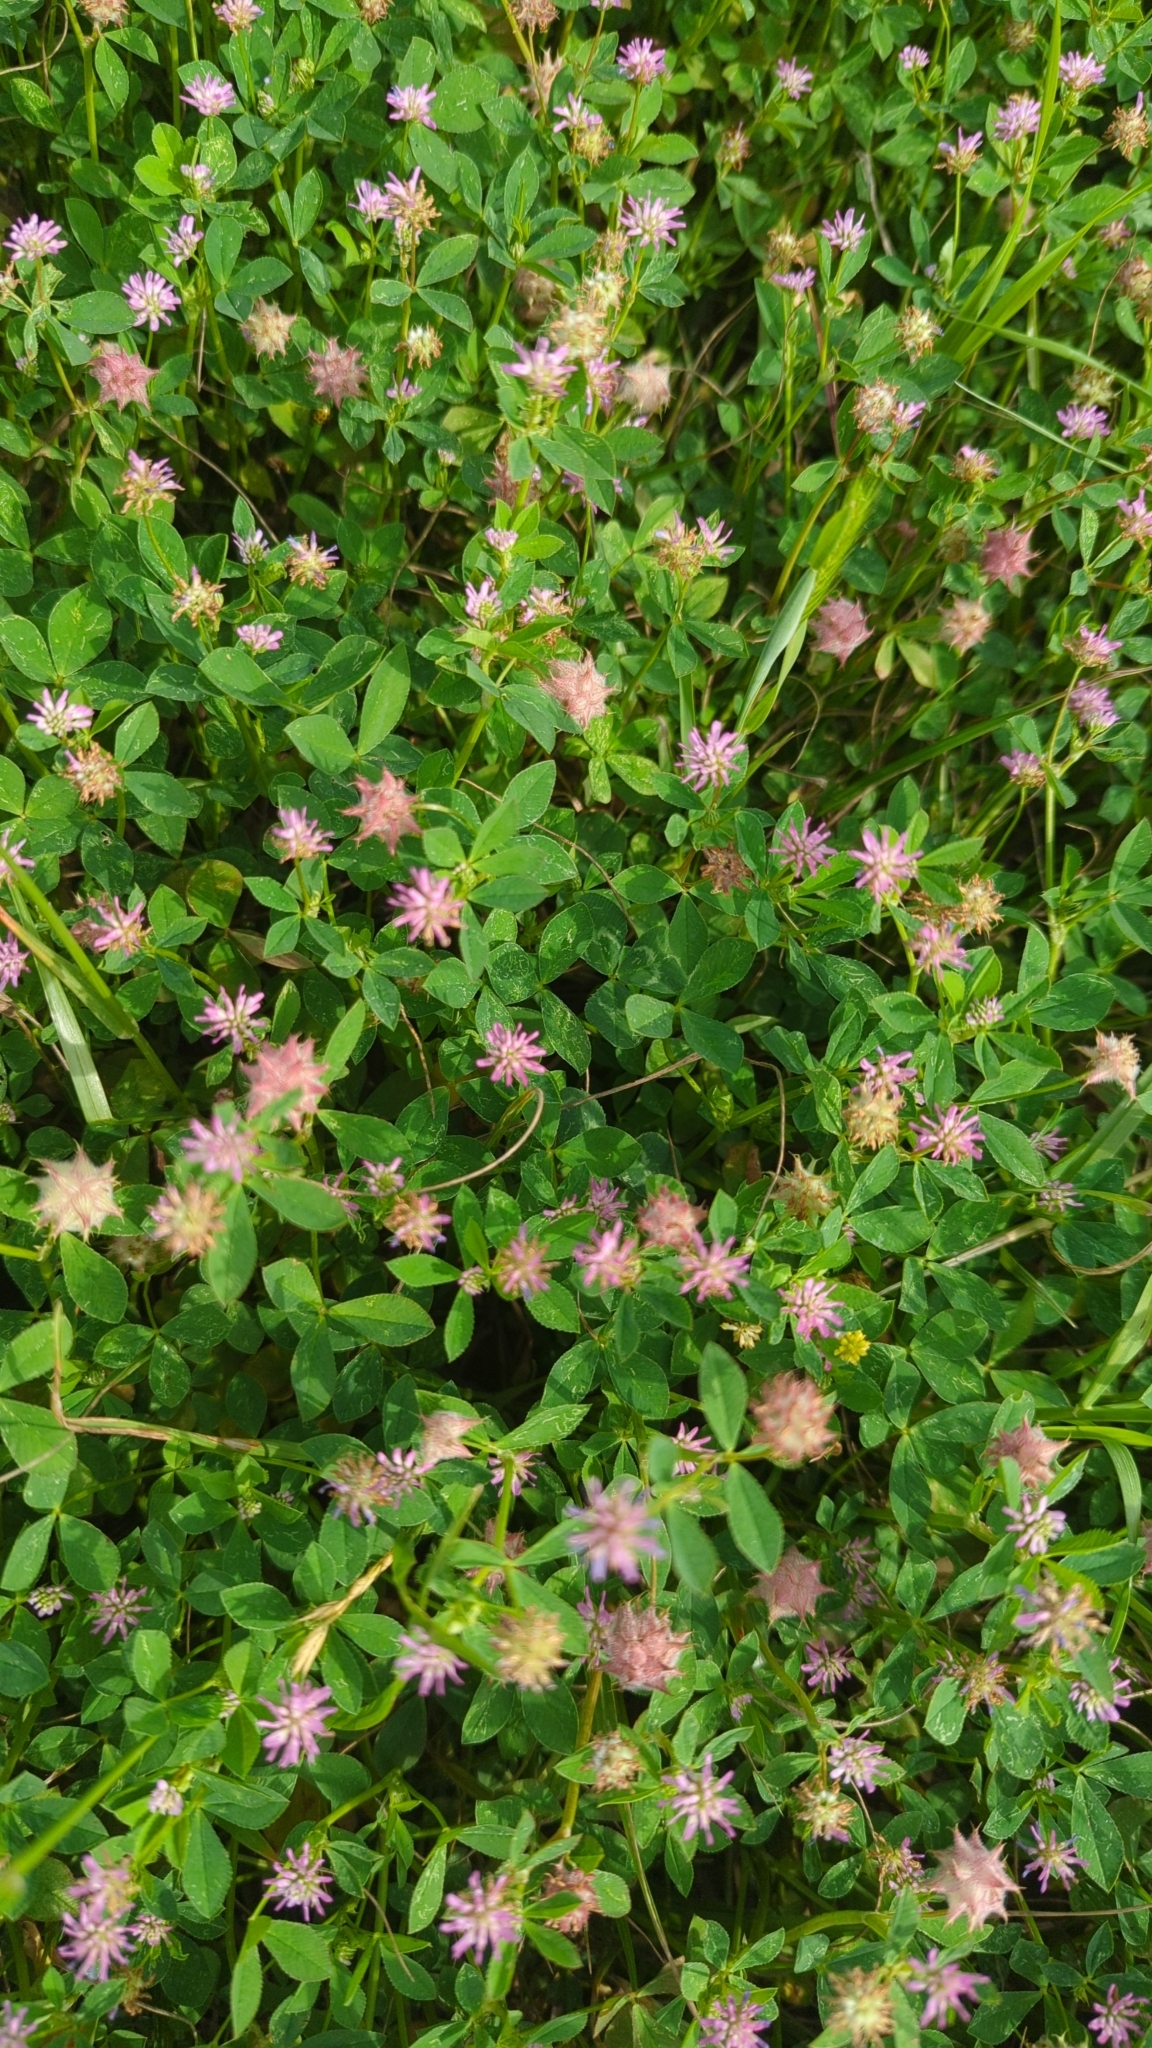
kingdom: Plantae
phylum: Tracheophyta
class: Magnoliopsida
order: Fabales
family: Fabaceae
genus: Trifolium
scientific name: Trifolium resupinatum
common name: Reversed clover
